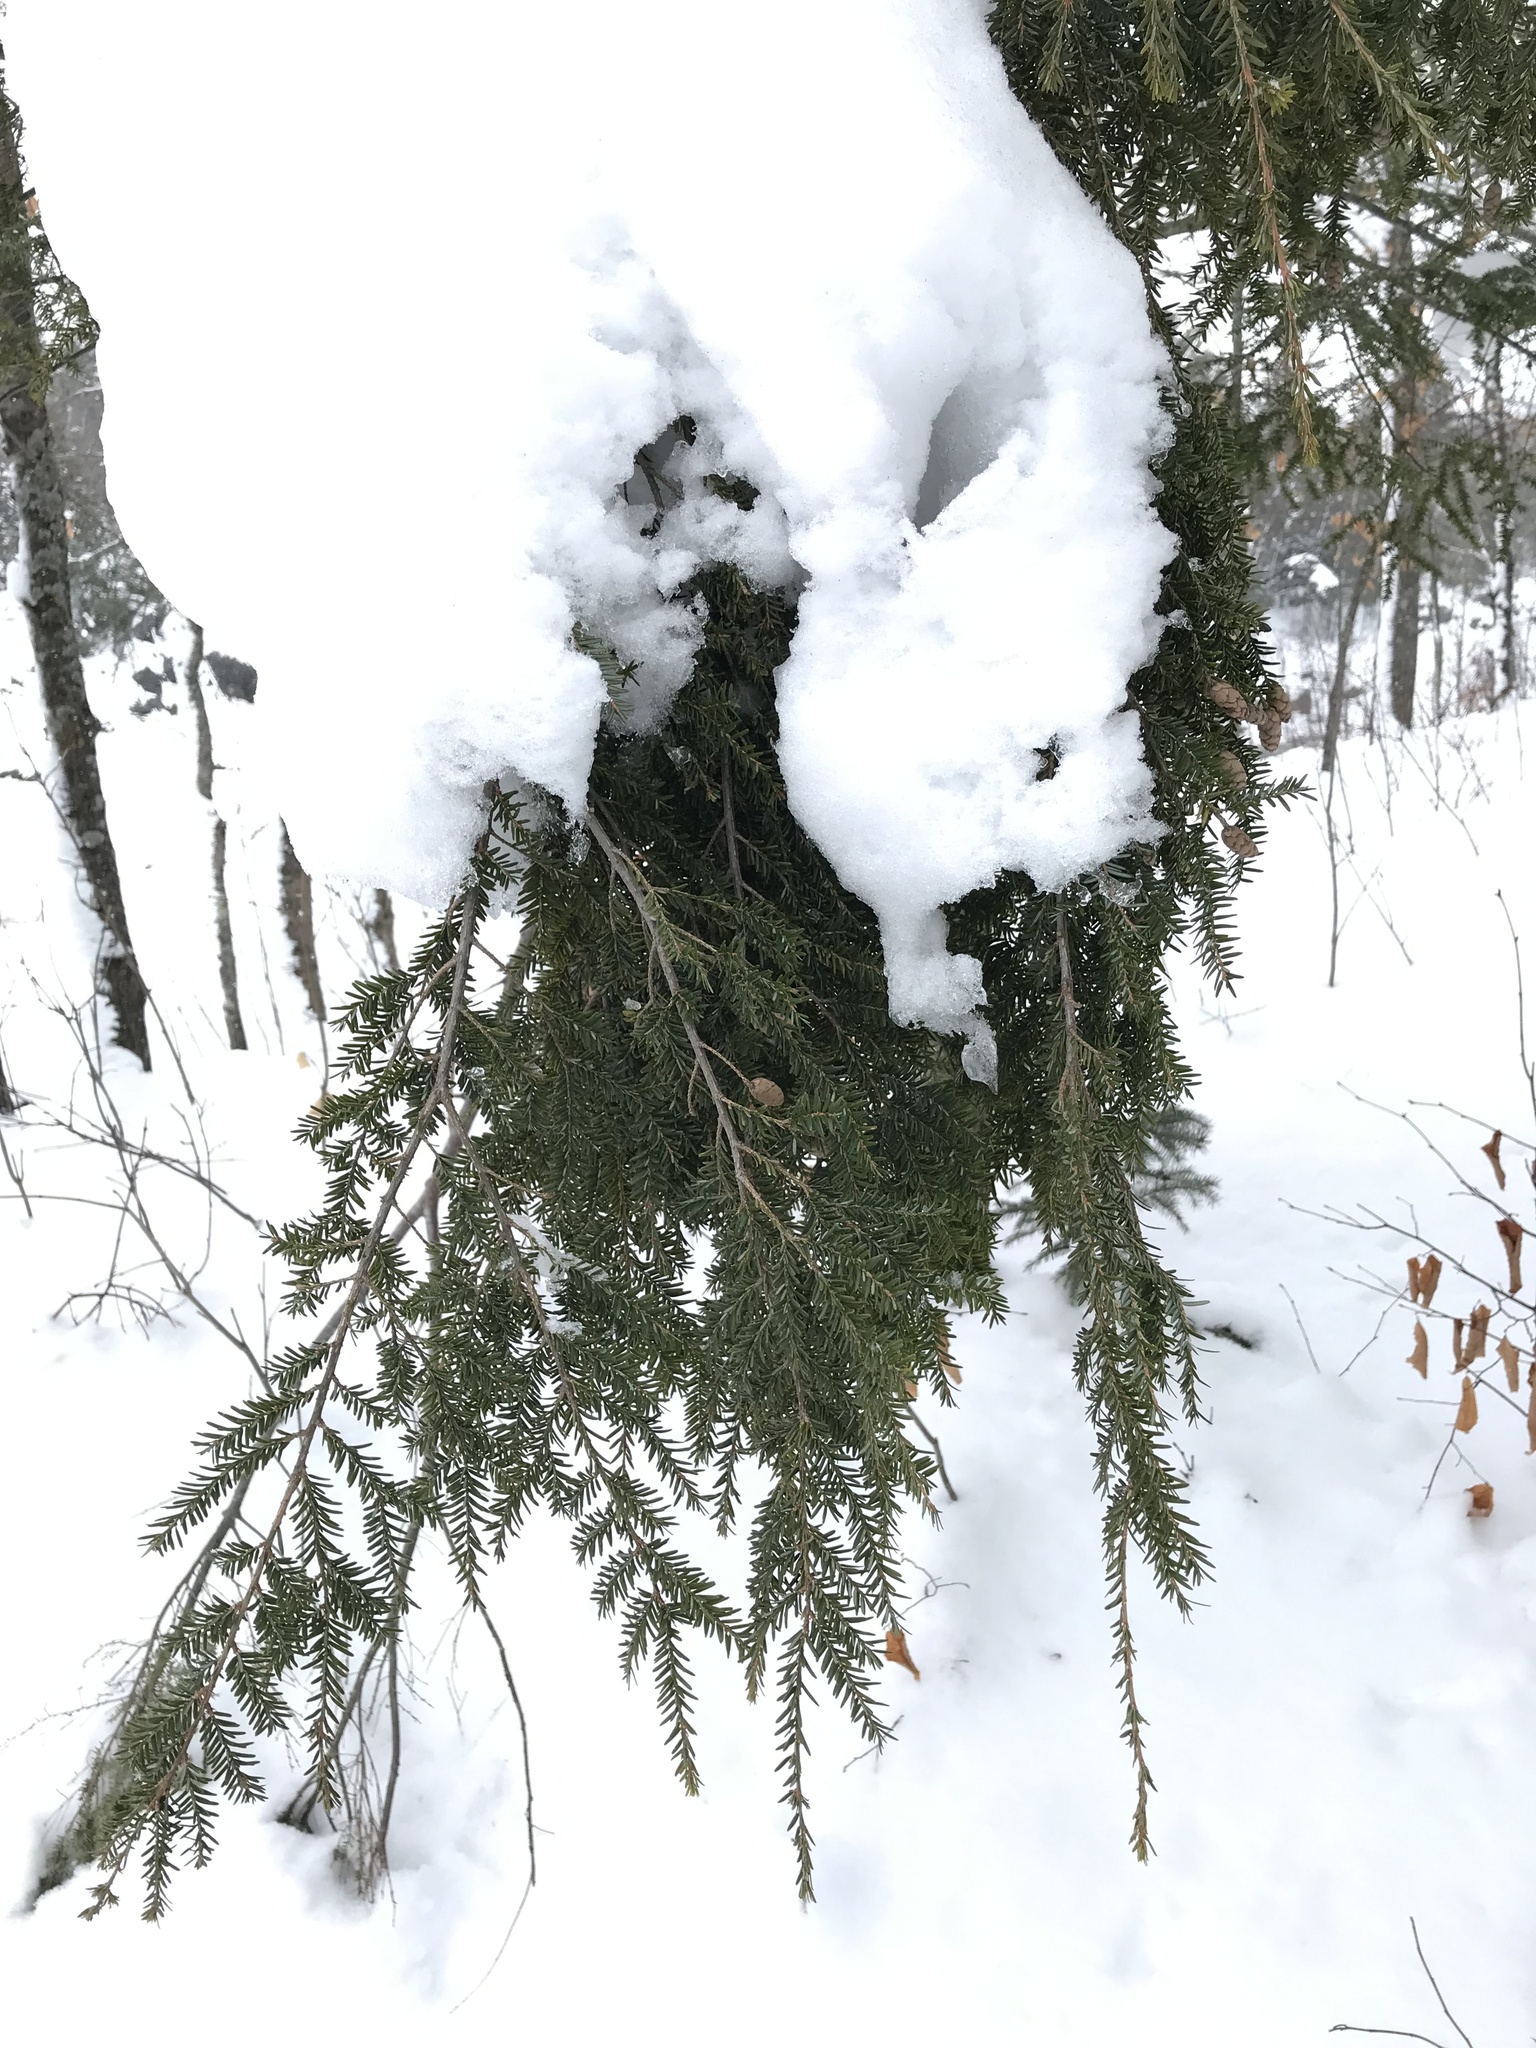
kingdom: Plantae
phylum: Tracheophyta
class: Pinopsida
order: Pinales
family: Pinaceae
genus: Tsuga
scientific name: Tsuga canadensis
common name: Eastern hemlock
